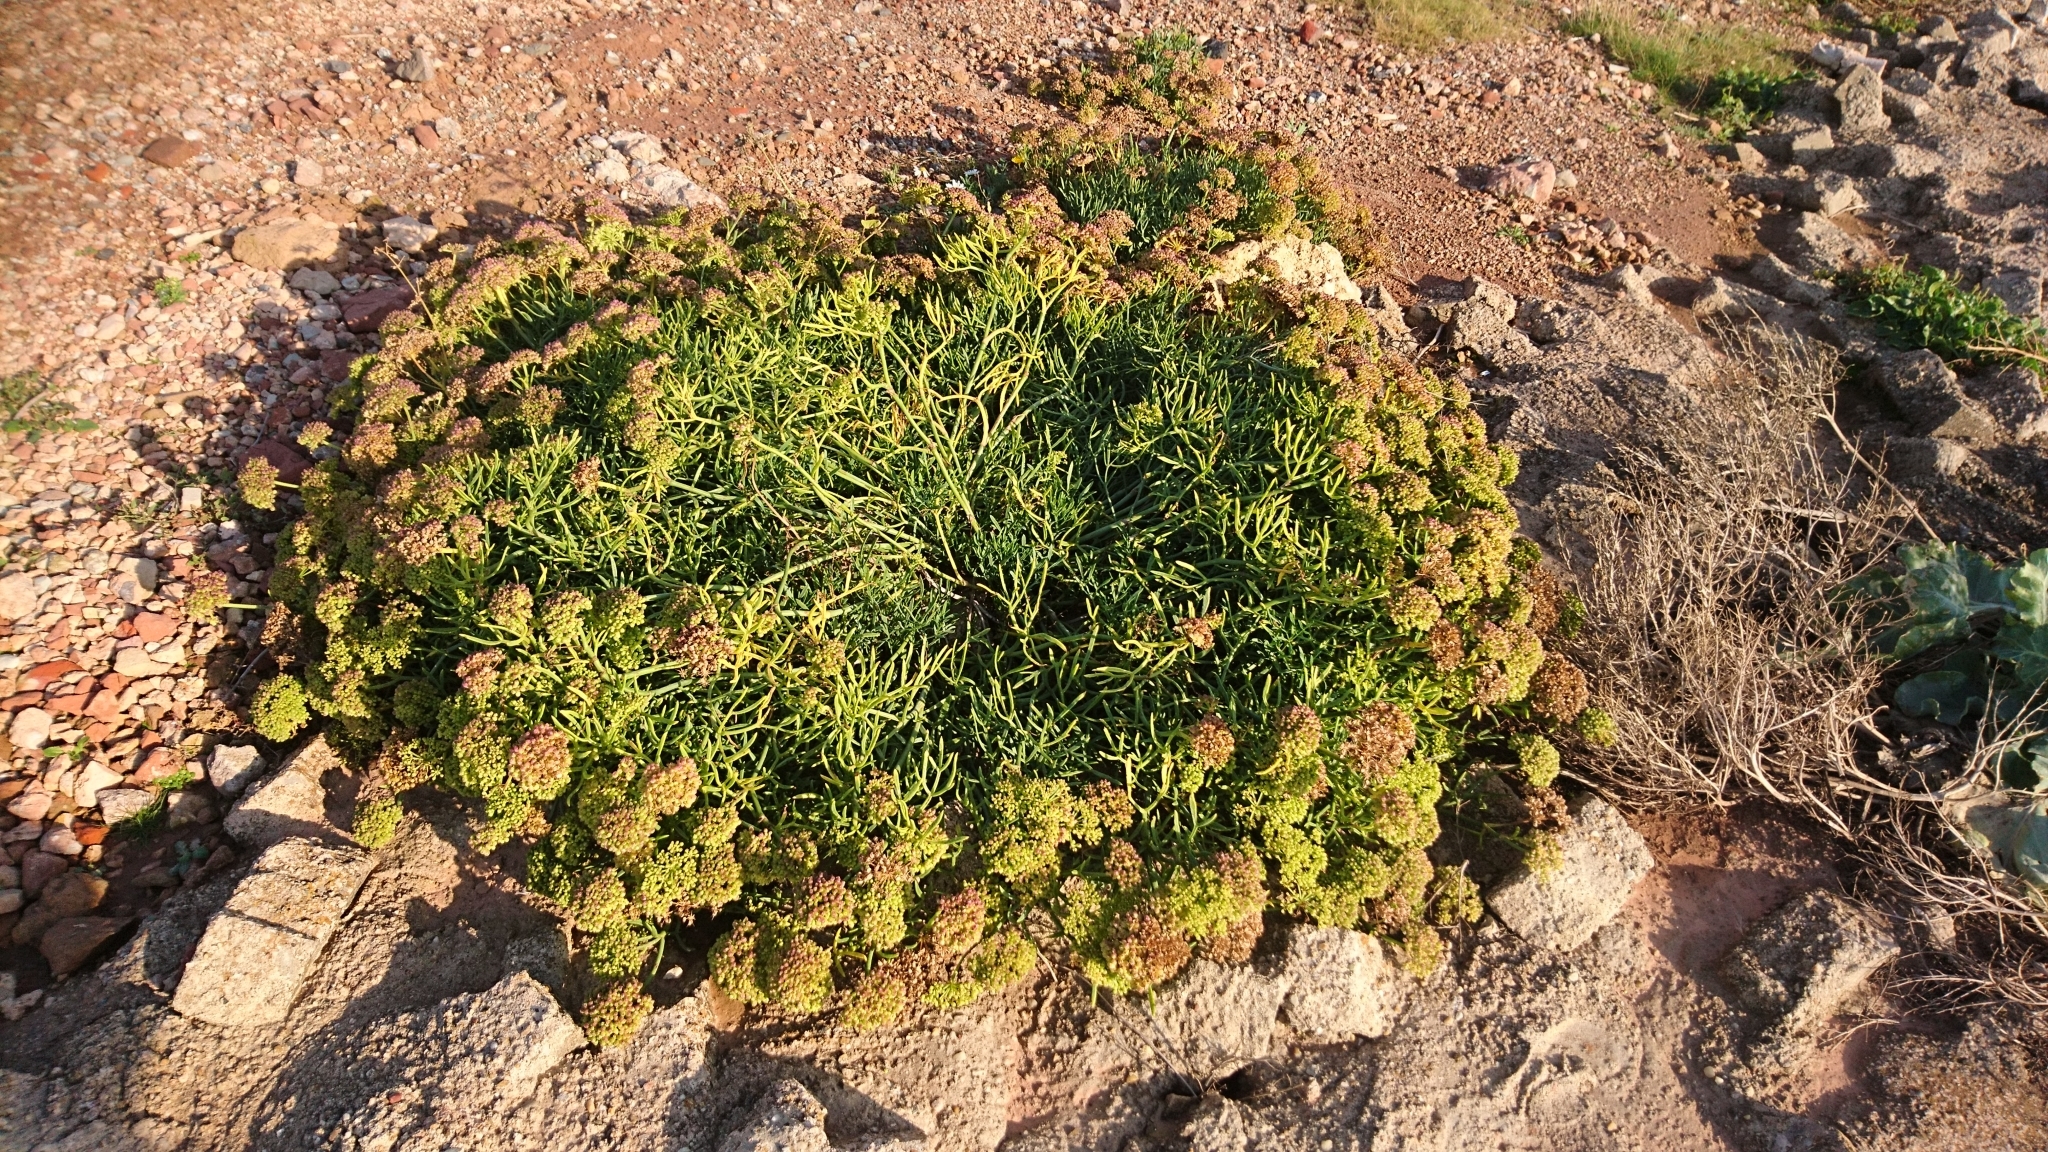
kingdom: Plantae
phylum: Tracheophyta
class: Magnoliopsida
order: Apiales
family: Apiaceae
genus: Crithmum
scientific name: Crithmum maritimum
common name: Rock samphire
